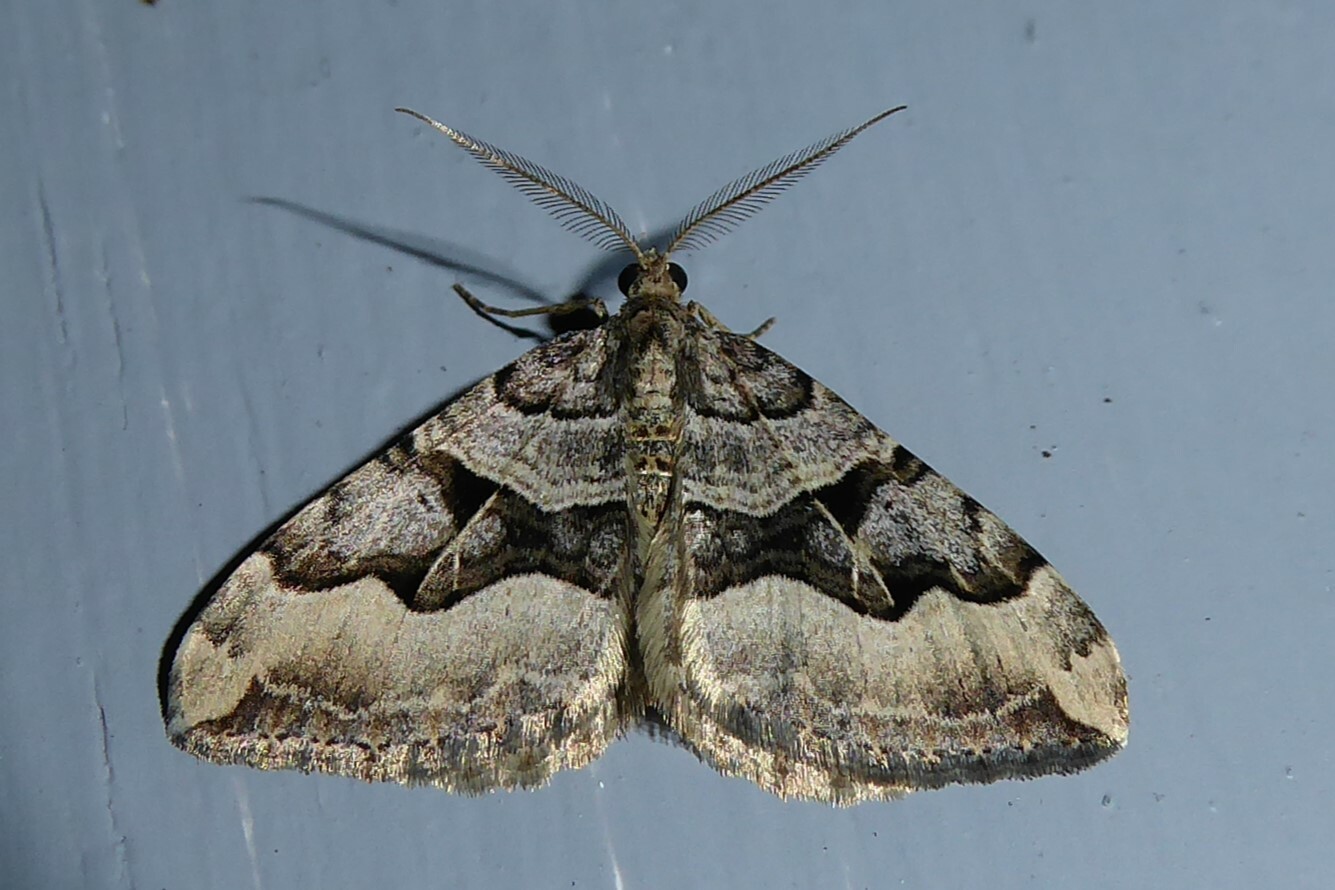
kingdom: Animalia
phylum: Arthropoda
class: Insecta
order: Lepidoptera
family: Geometridae
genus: Xanthorhoe
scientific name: Xanthorhoe semifissata
